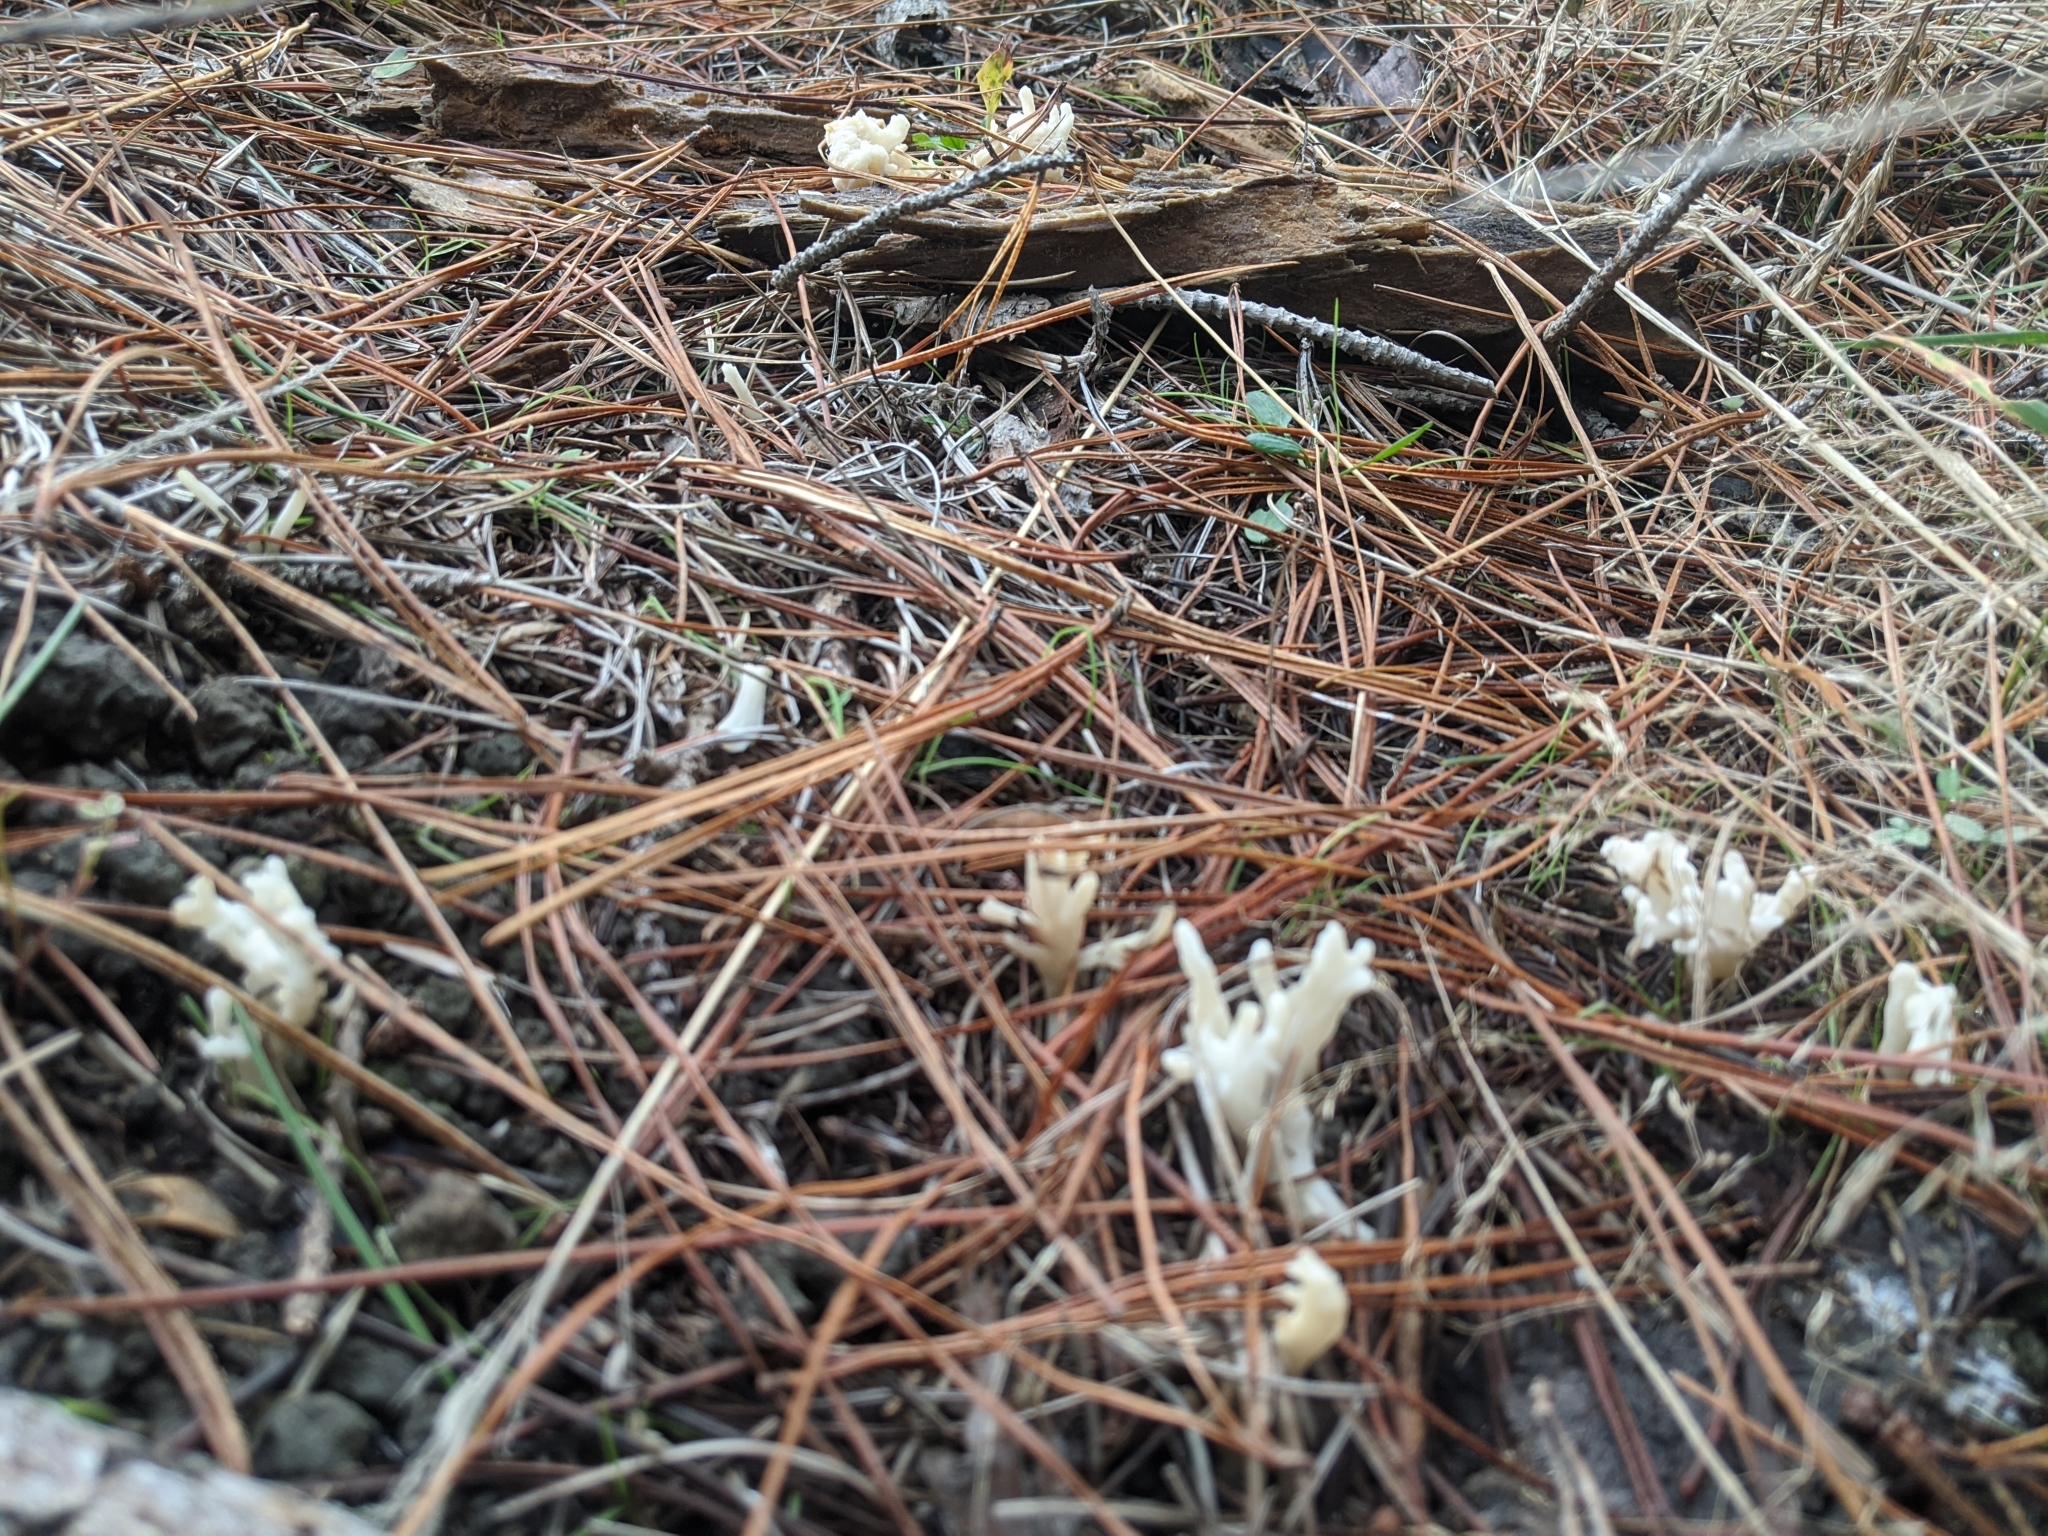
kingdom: Fungi
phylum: Basidiomycota
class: Agaricomycetes
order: Cantharellales
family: Hydnaceae
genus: Clavulina
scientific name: Clavulina rugosa
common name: Wrinkled club
